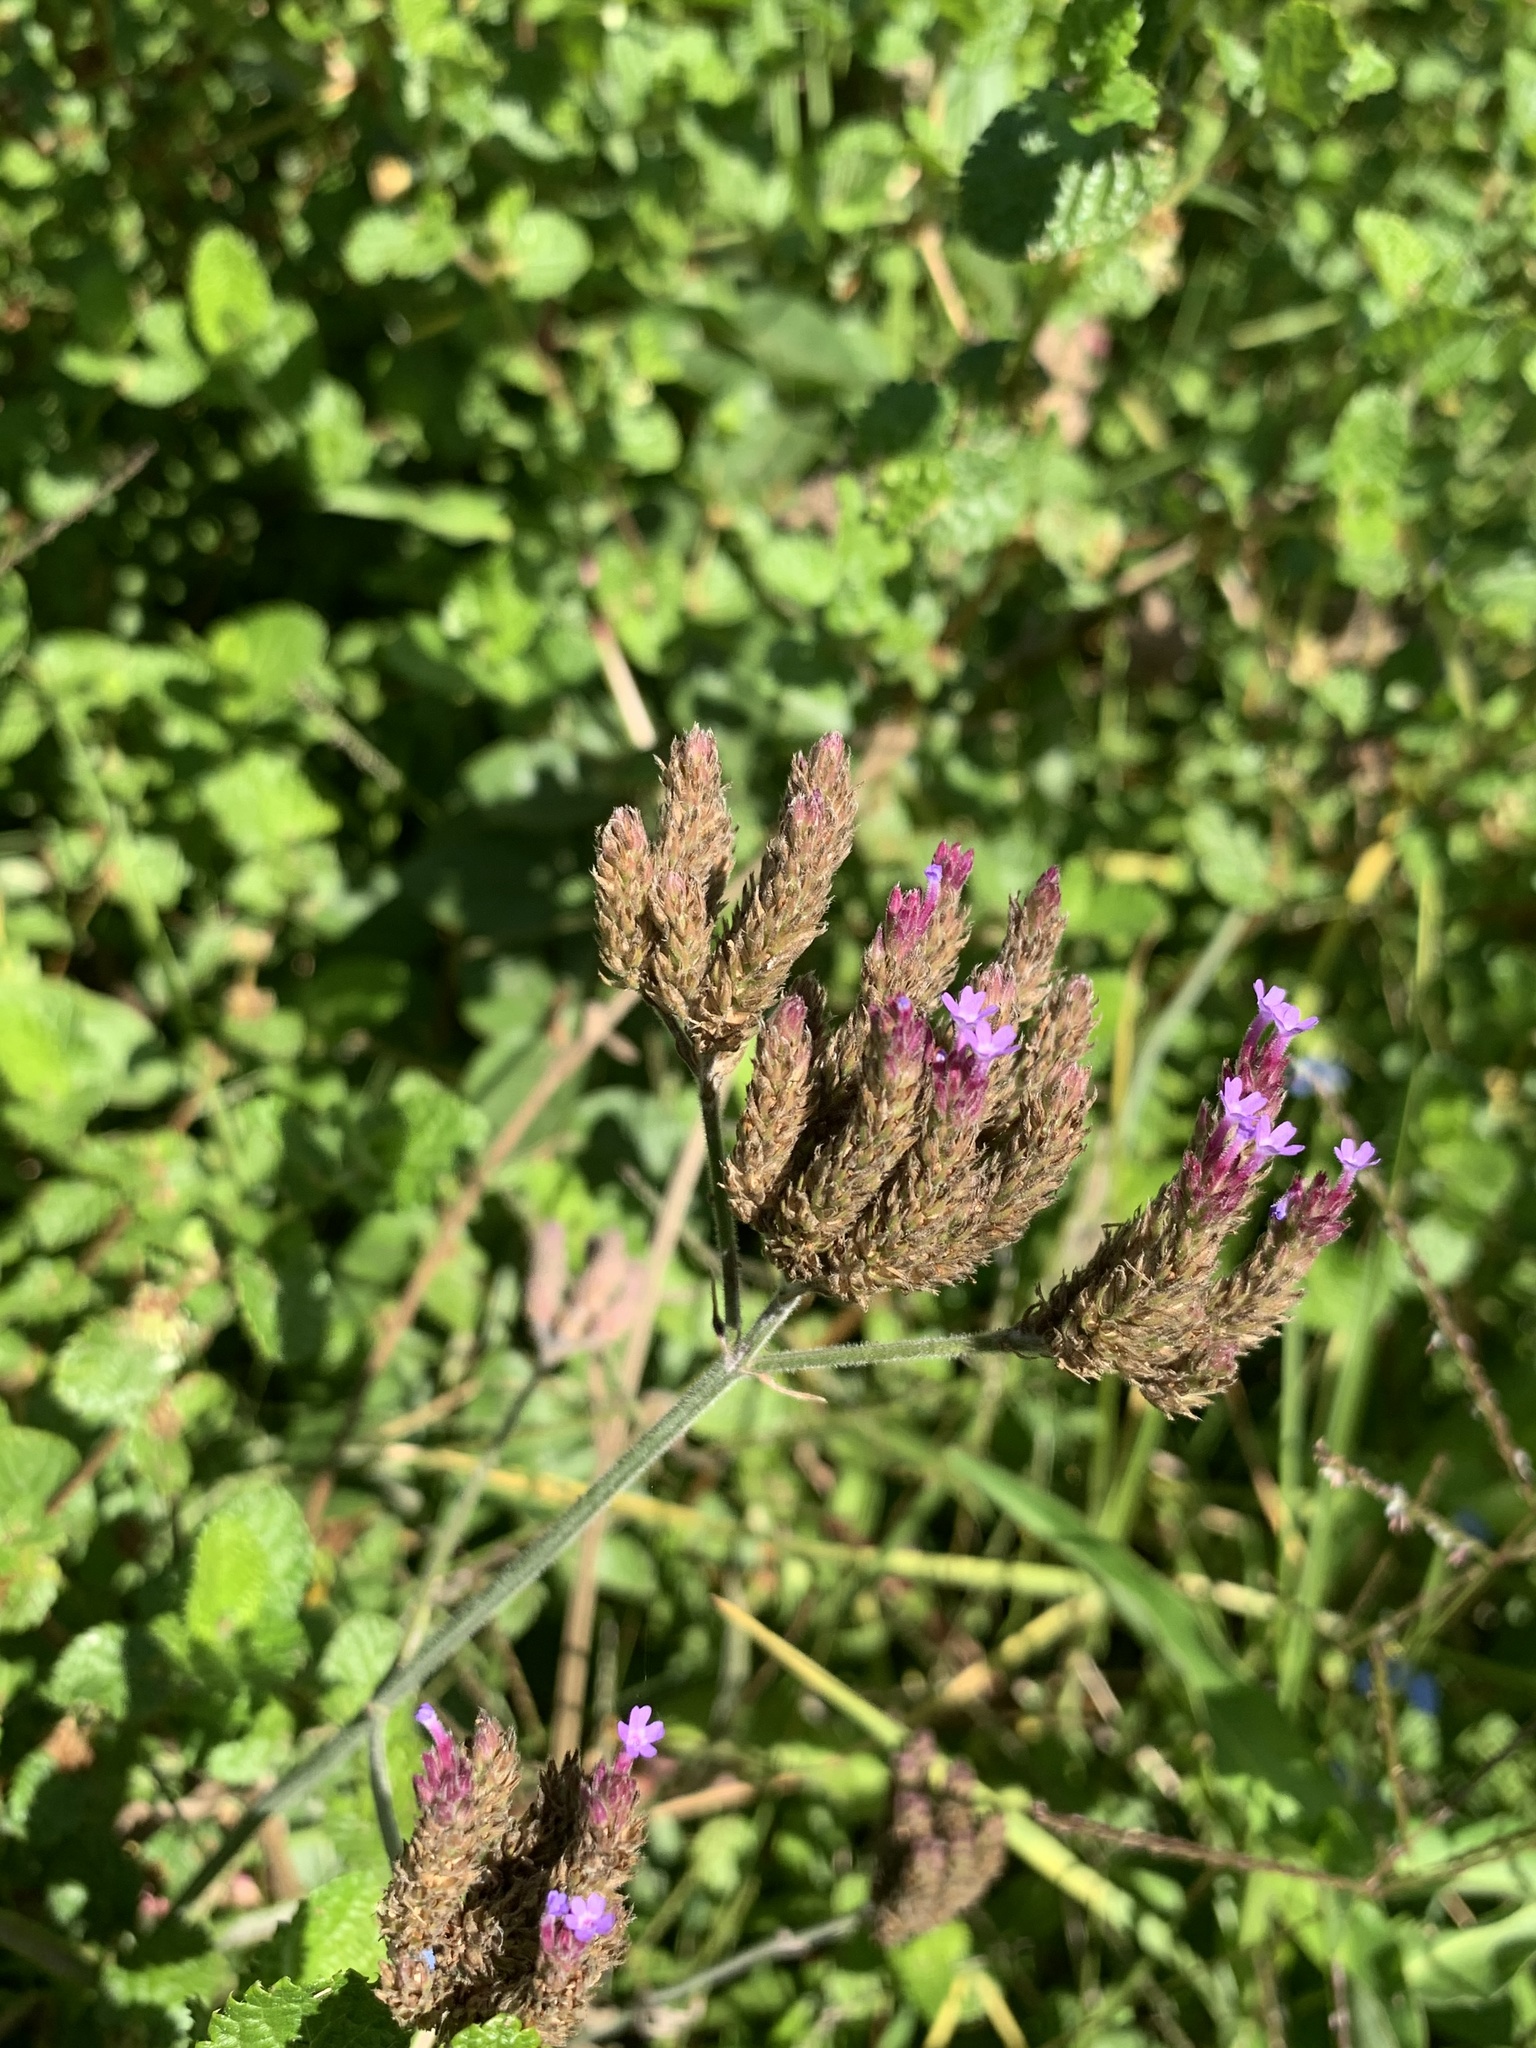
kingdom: Plantae
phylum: Tracheophyta
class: Magnoliopsida
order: Lamiales
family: Verbenaceae
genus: Verbena
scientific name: Verbena bonariensis
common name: Purpletop vervain
